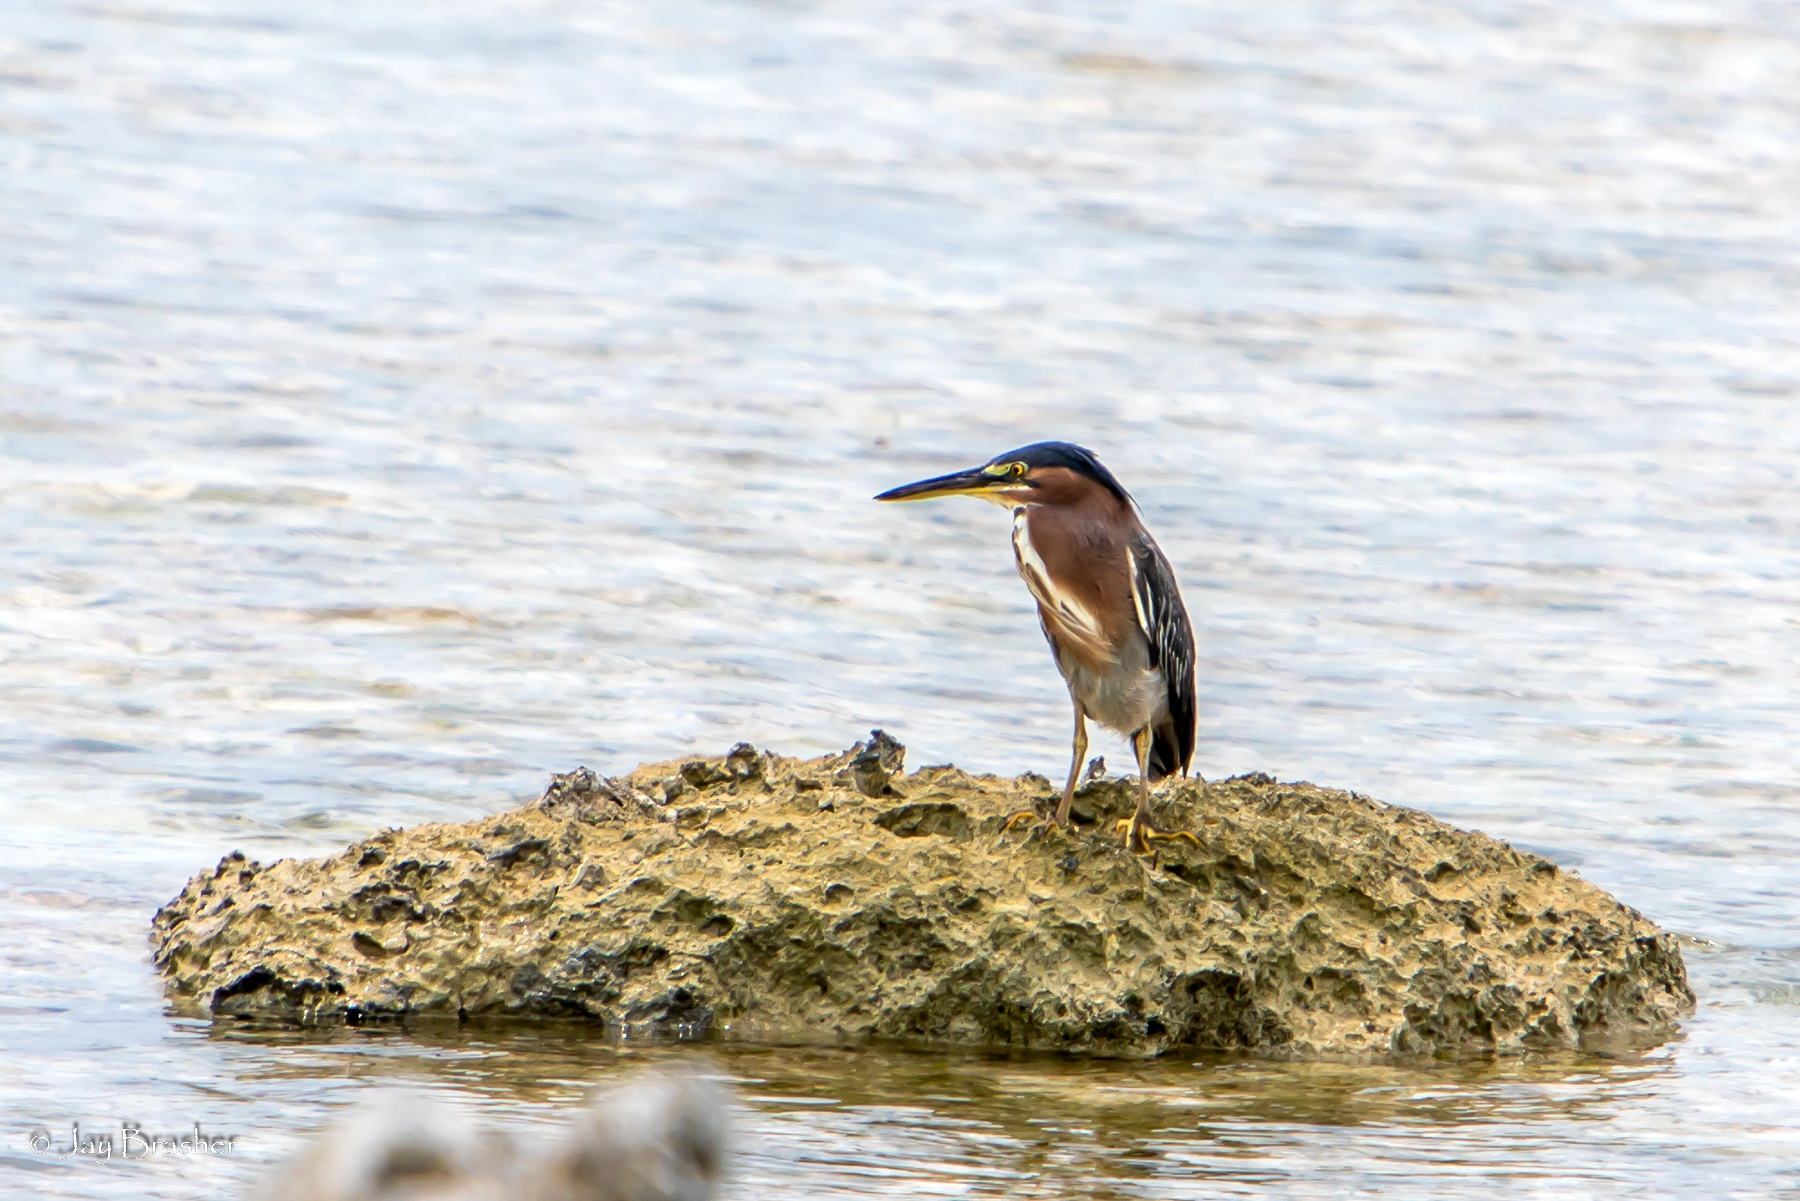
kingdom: Animalia
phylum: Chordata
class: Aves
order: Pelecaniformes
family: Ardeidae
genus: Butorides
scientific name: Butorides virescens
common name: Green heron
